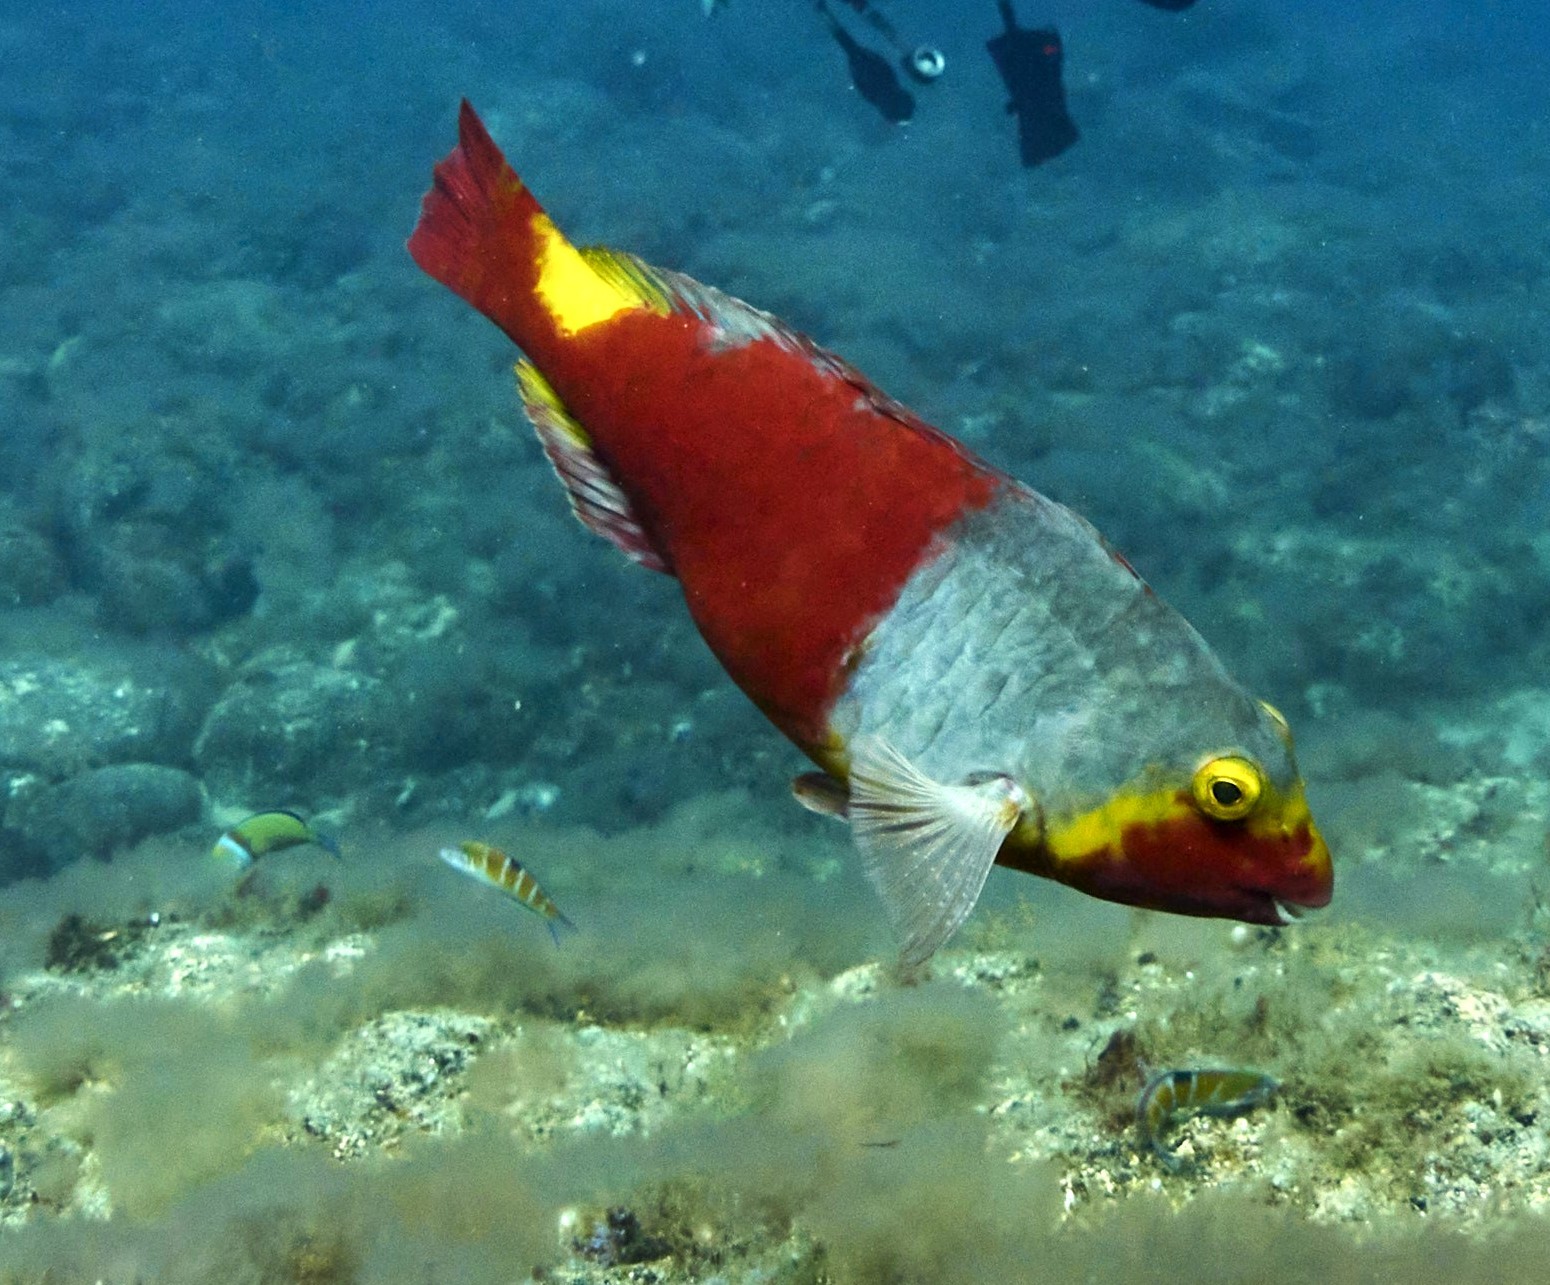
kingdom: Animalia
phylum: Chordata
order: Perciformes
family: Scaridae
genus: Sparisoma
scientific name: Sparisoma cretense
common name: Parrotfish
